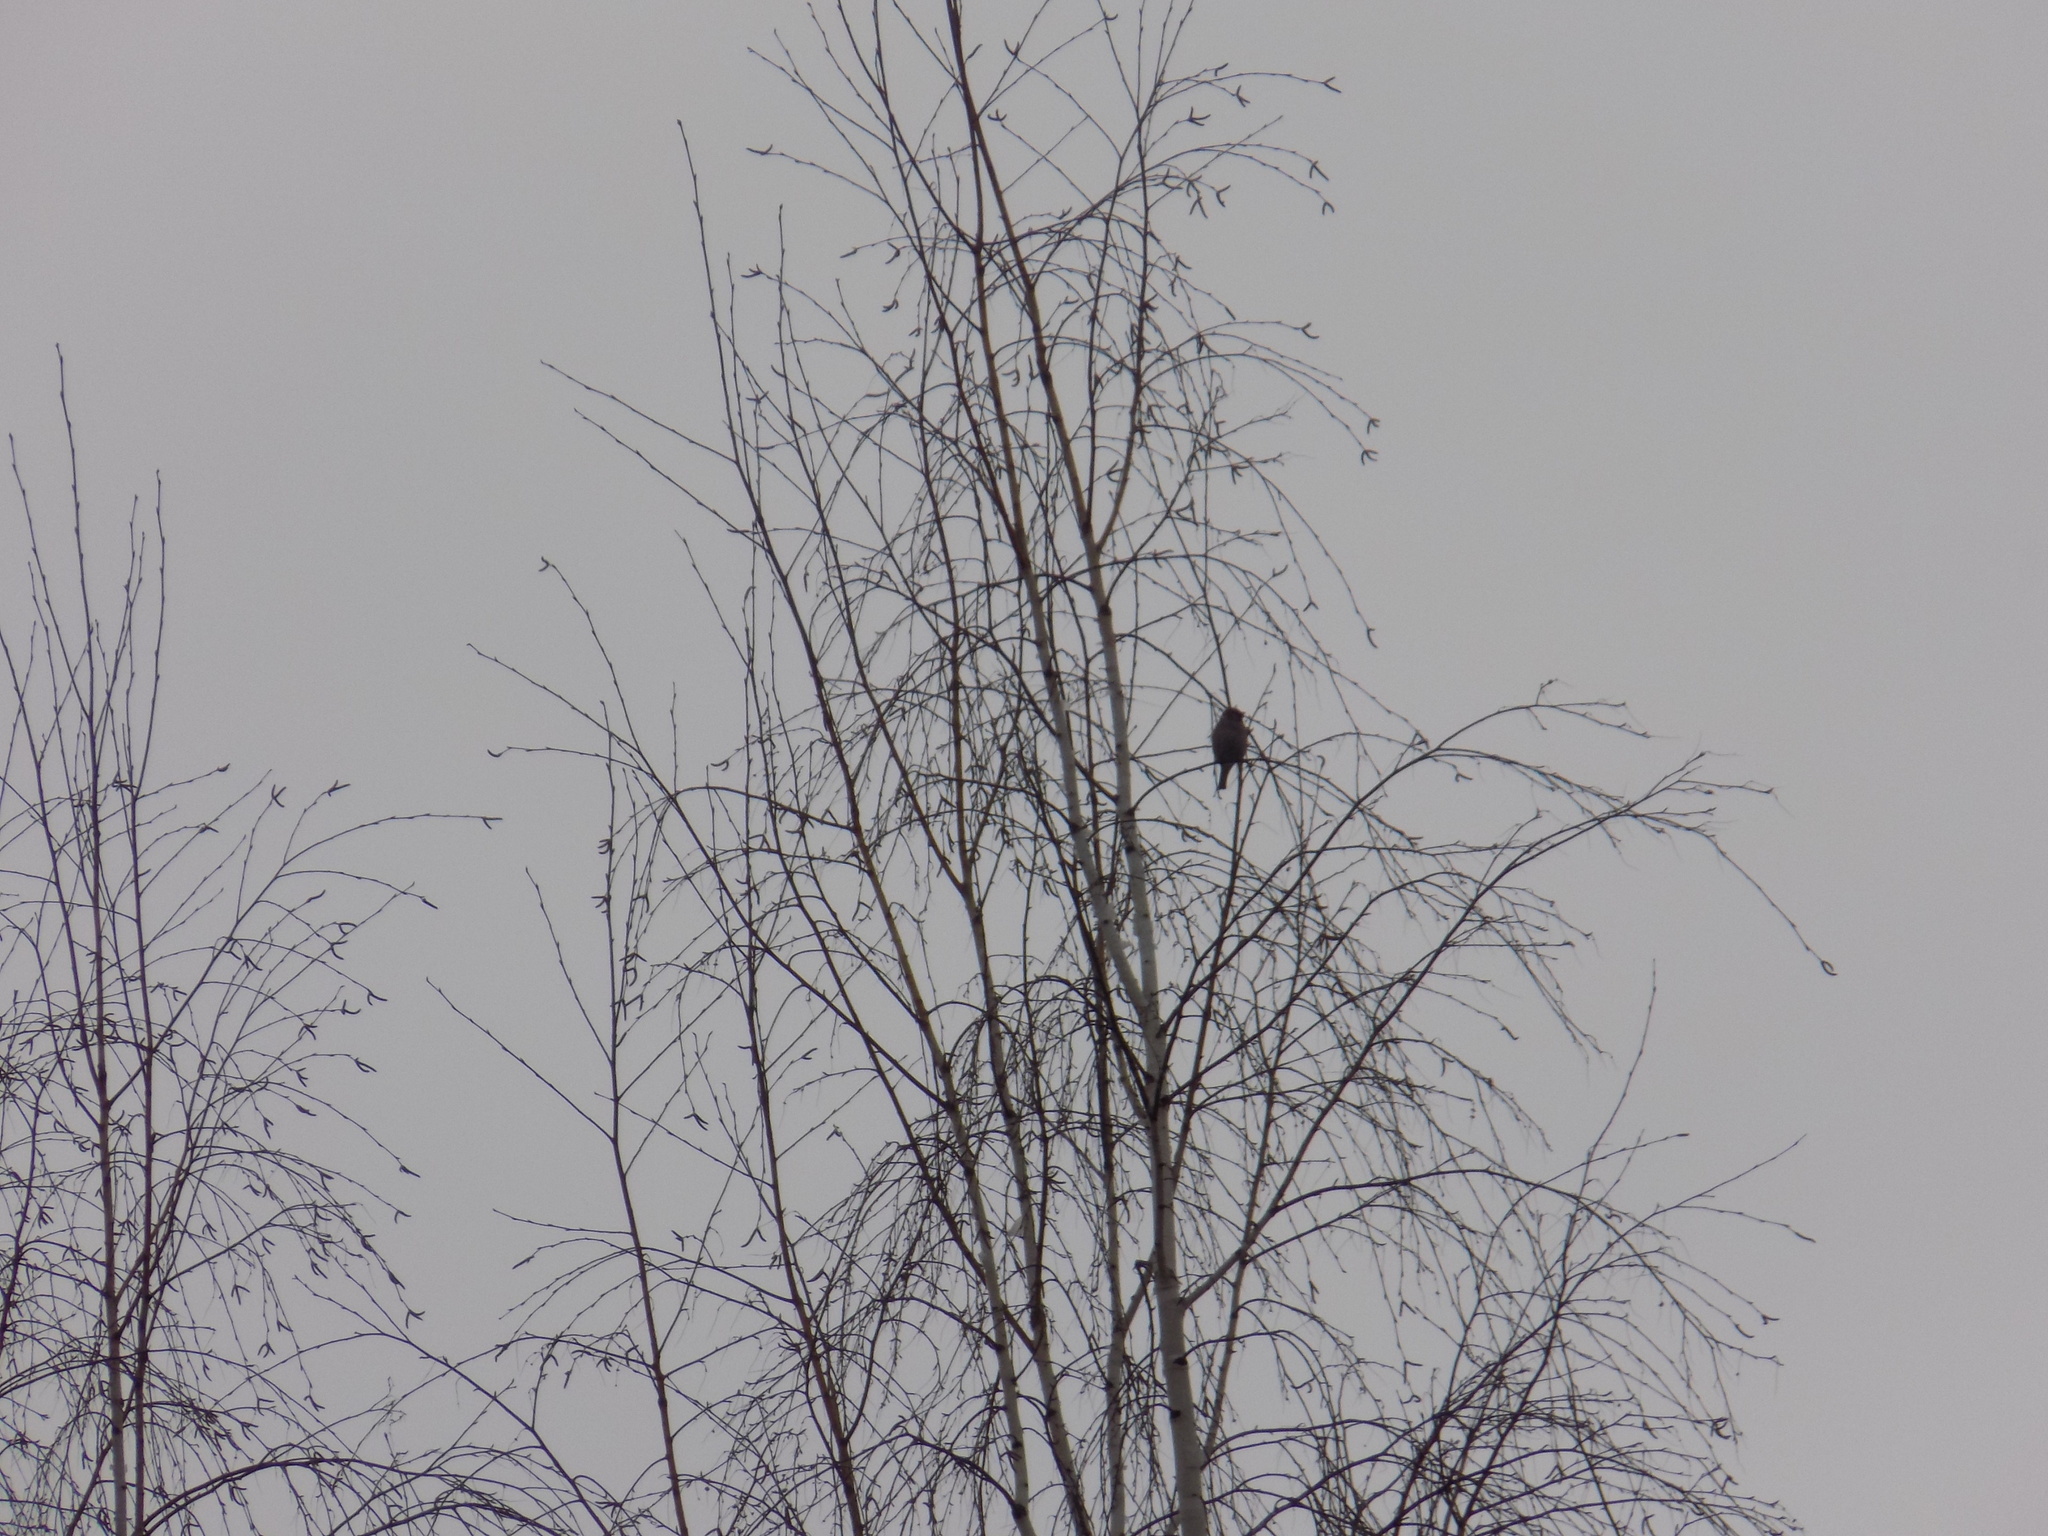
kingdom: Animalia
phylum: Chordata
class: Aves
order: Passeriformes
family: Passeridae
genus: Passer
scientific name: Passer
